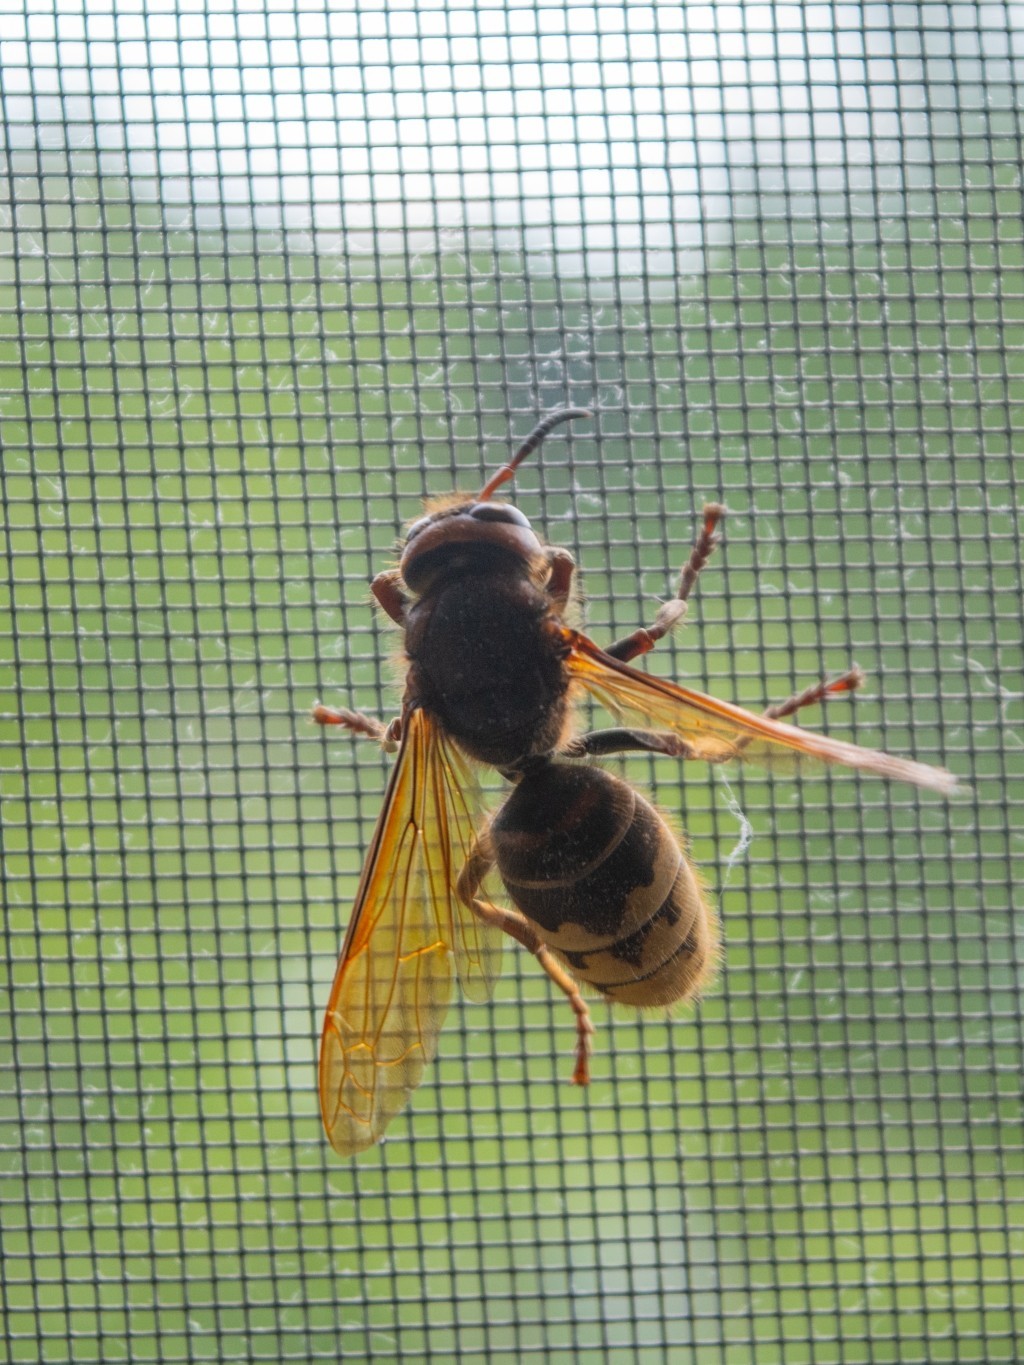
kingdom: Animalia
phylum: Arthropoda
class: Insecta
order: Hymenoptera
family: Vespidae
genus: Vespa
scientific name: Vespa crabro
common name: Hornet
